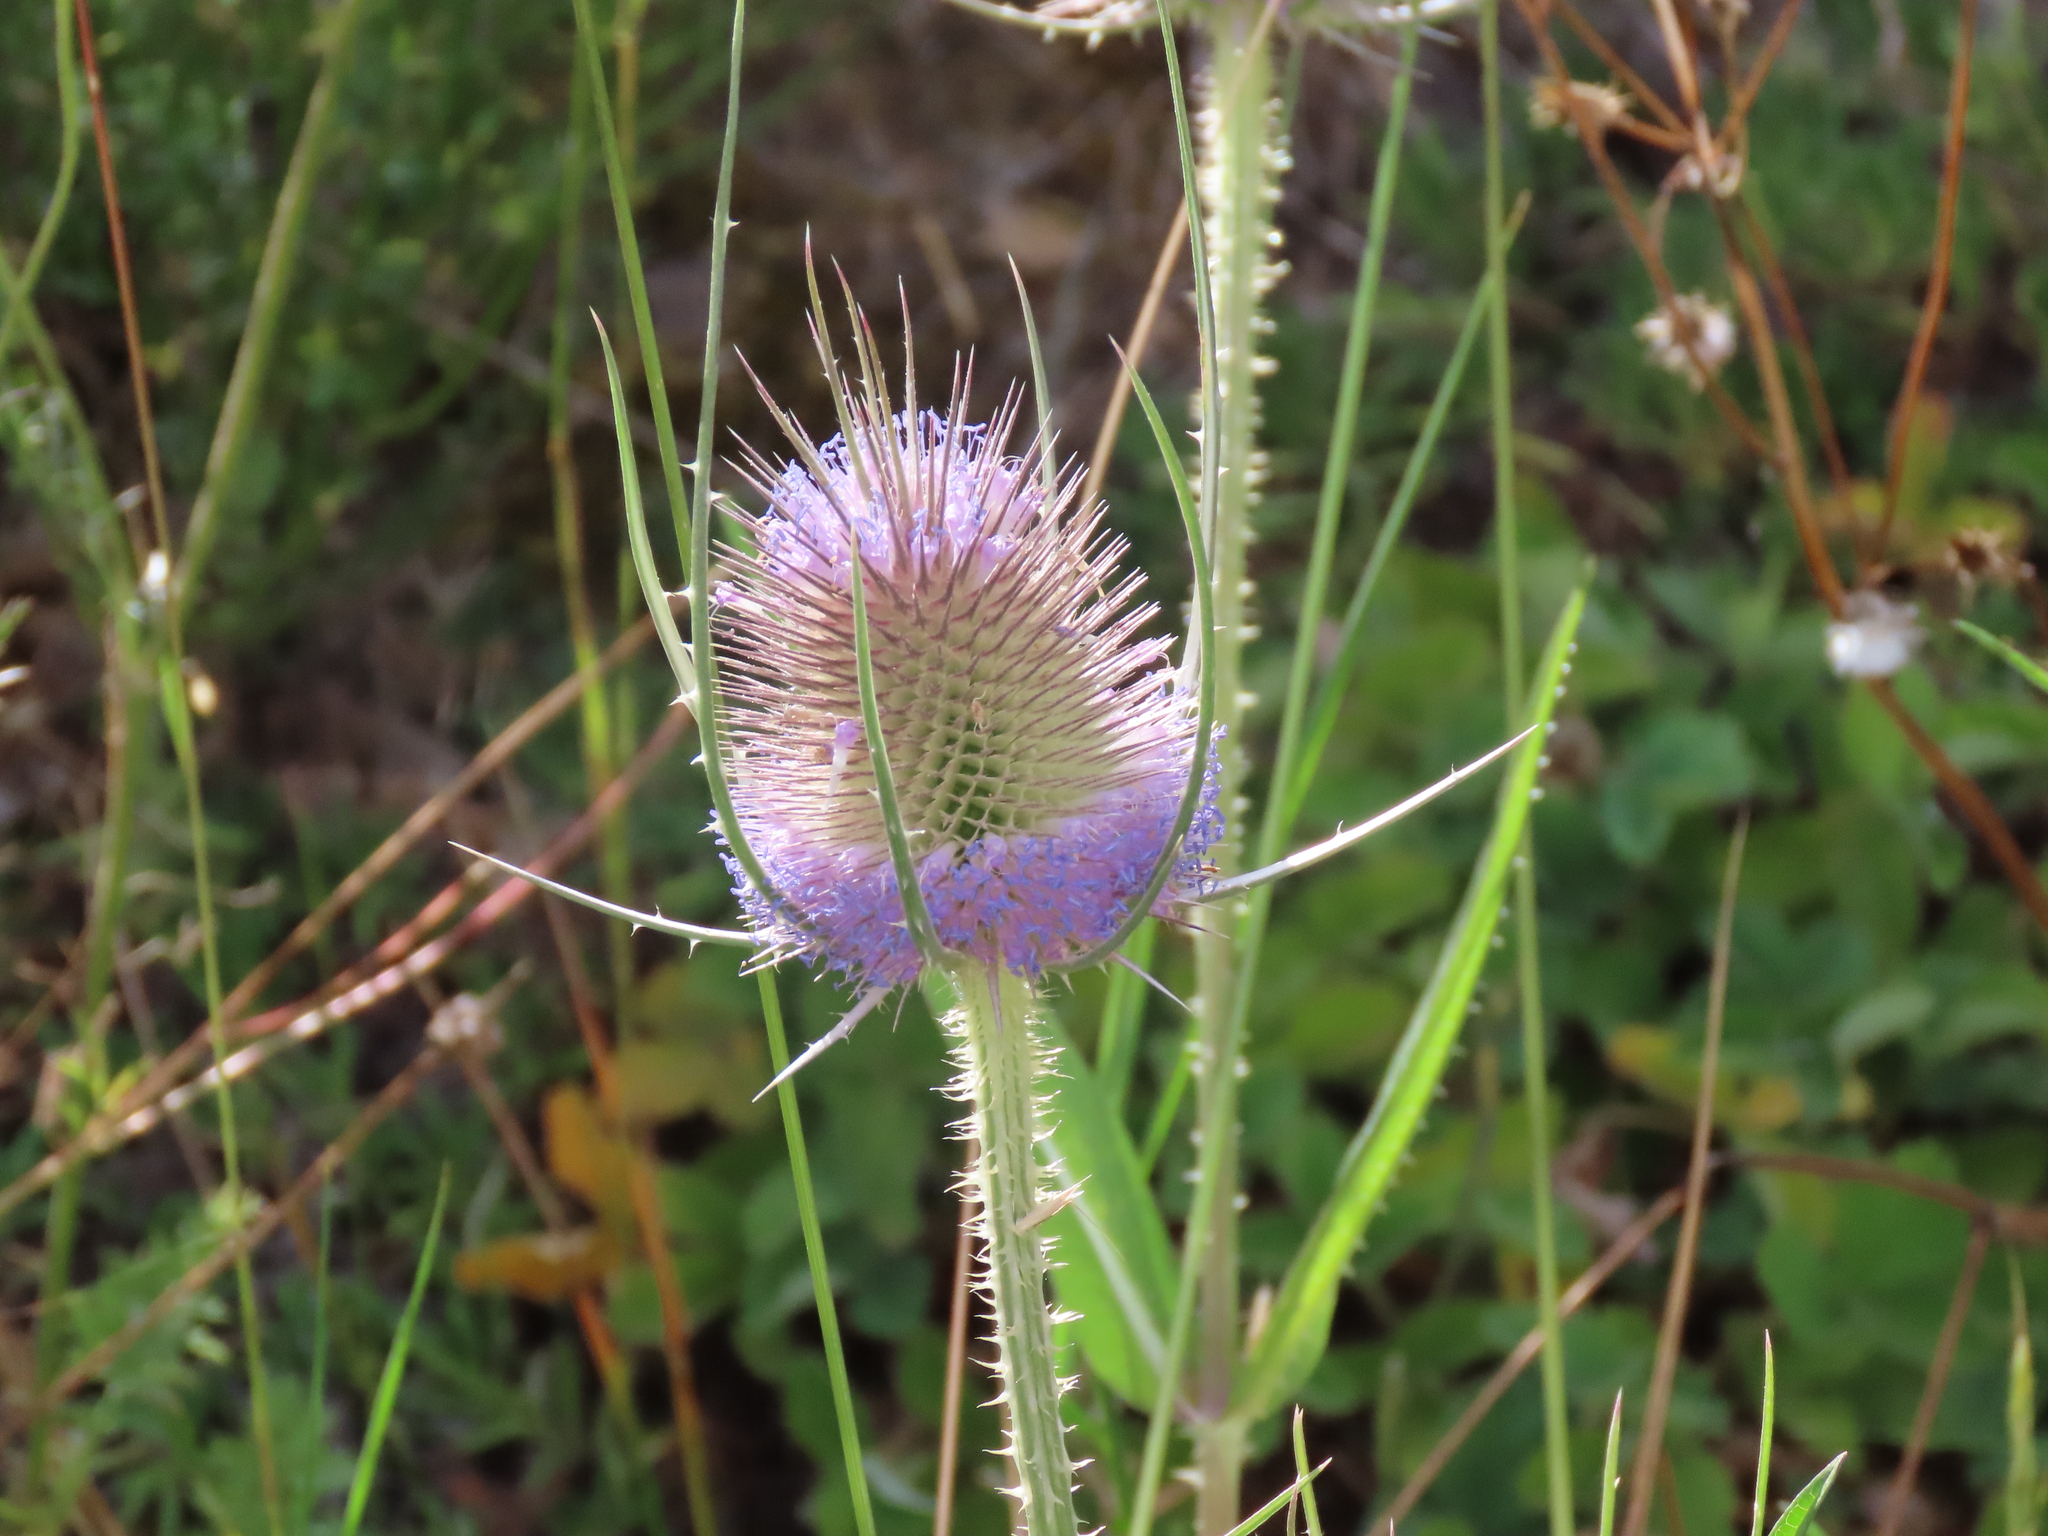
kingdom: Plantae
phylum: Tracheophyta
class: Magnoliopsida
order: Dipsacales
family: Caprifoliaceae
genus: Dipsacus
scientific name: Dipsacus fullonum
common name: Teasel
